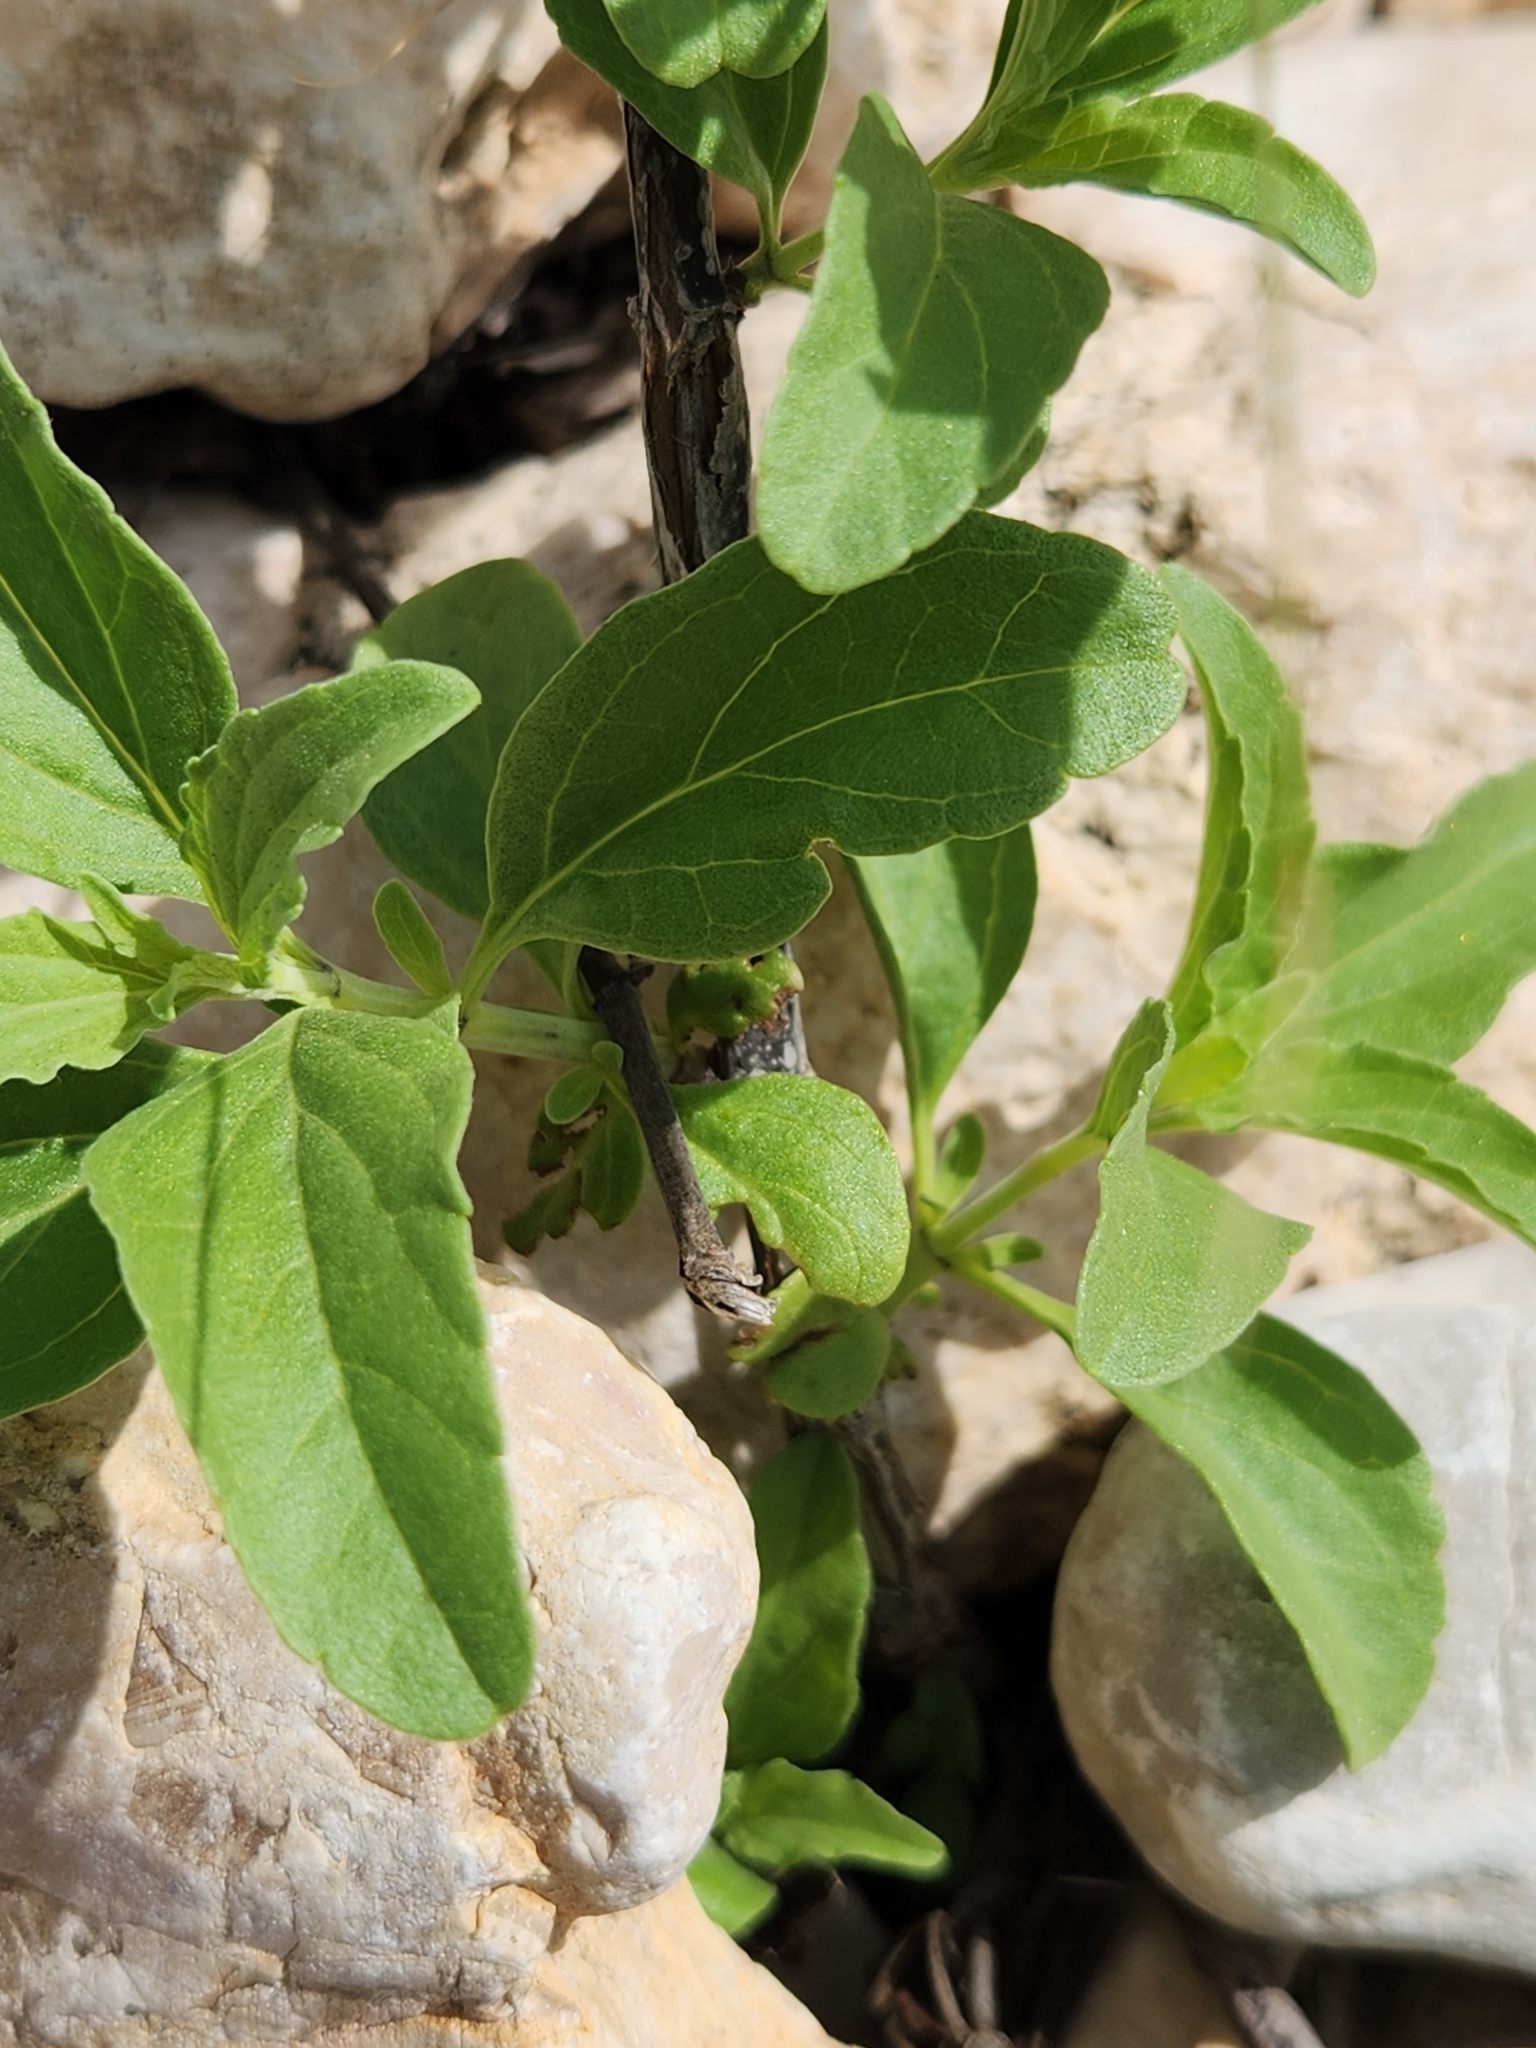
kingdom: Plantae
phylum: Tracheophyta
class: Magnoliopsida
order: Lamiales
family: Lamiaceae
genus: Salvia
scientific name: Salvia farinacea
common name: Mealy sage
